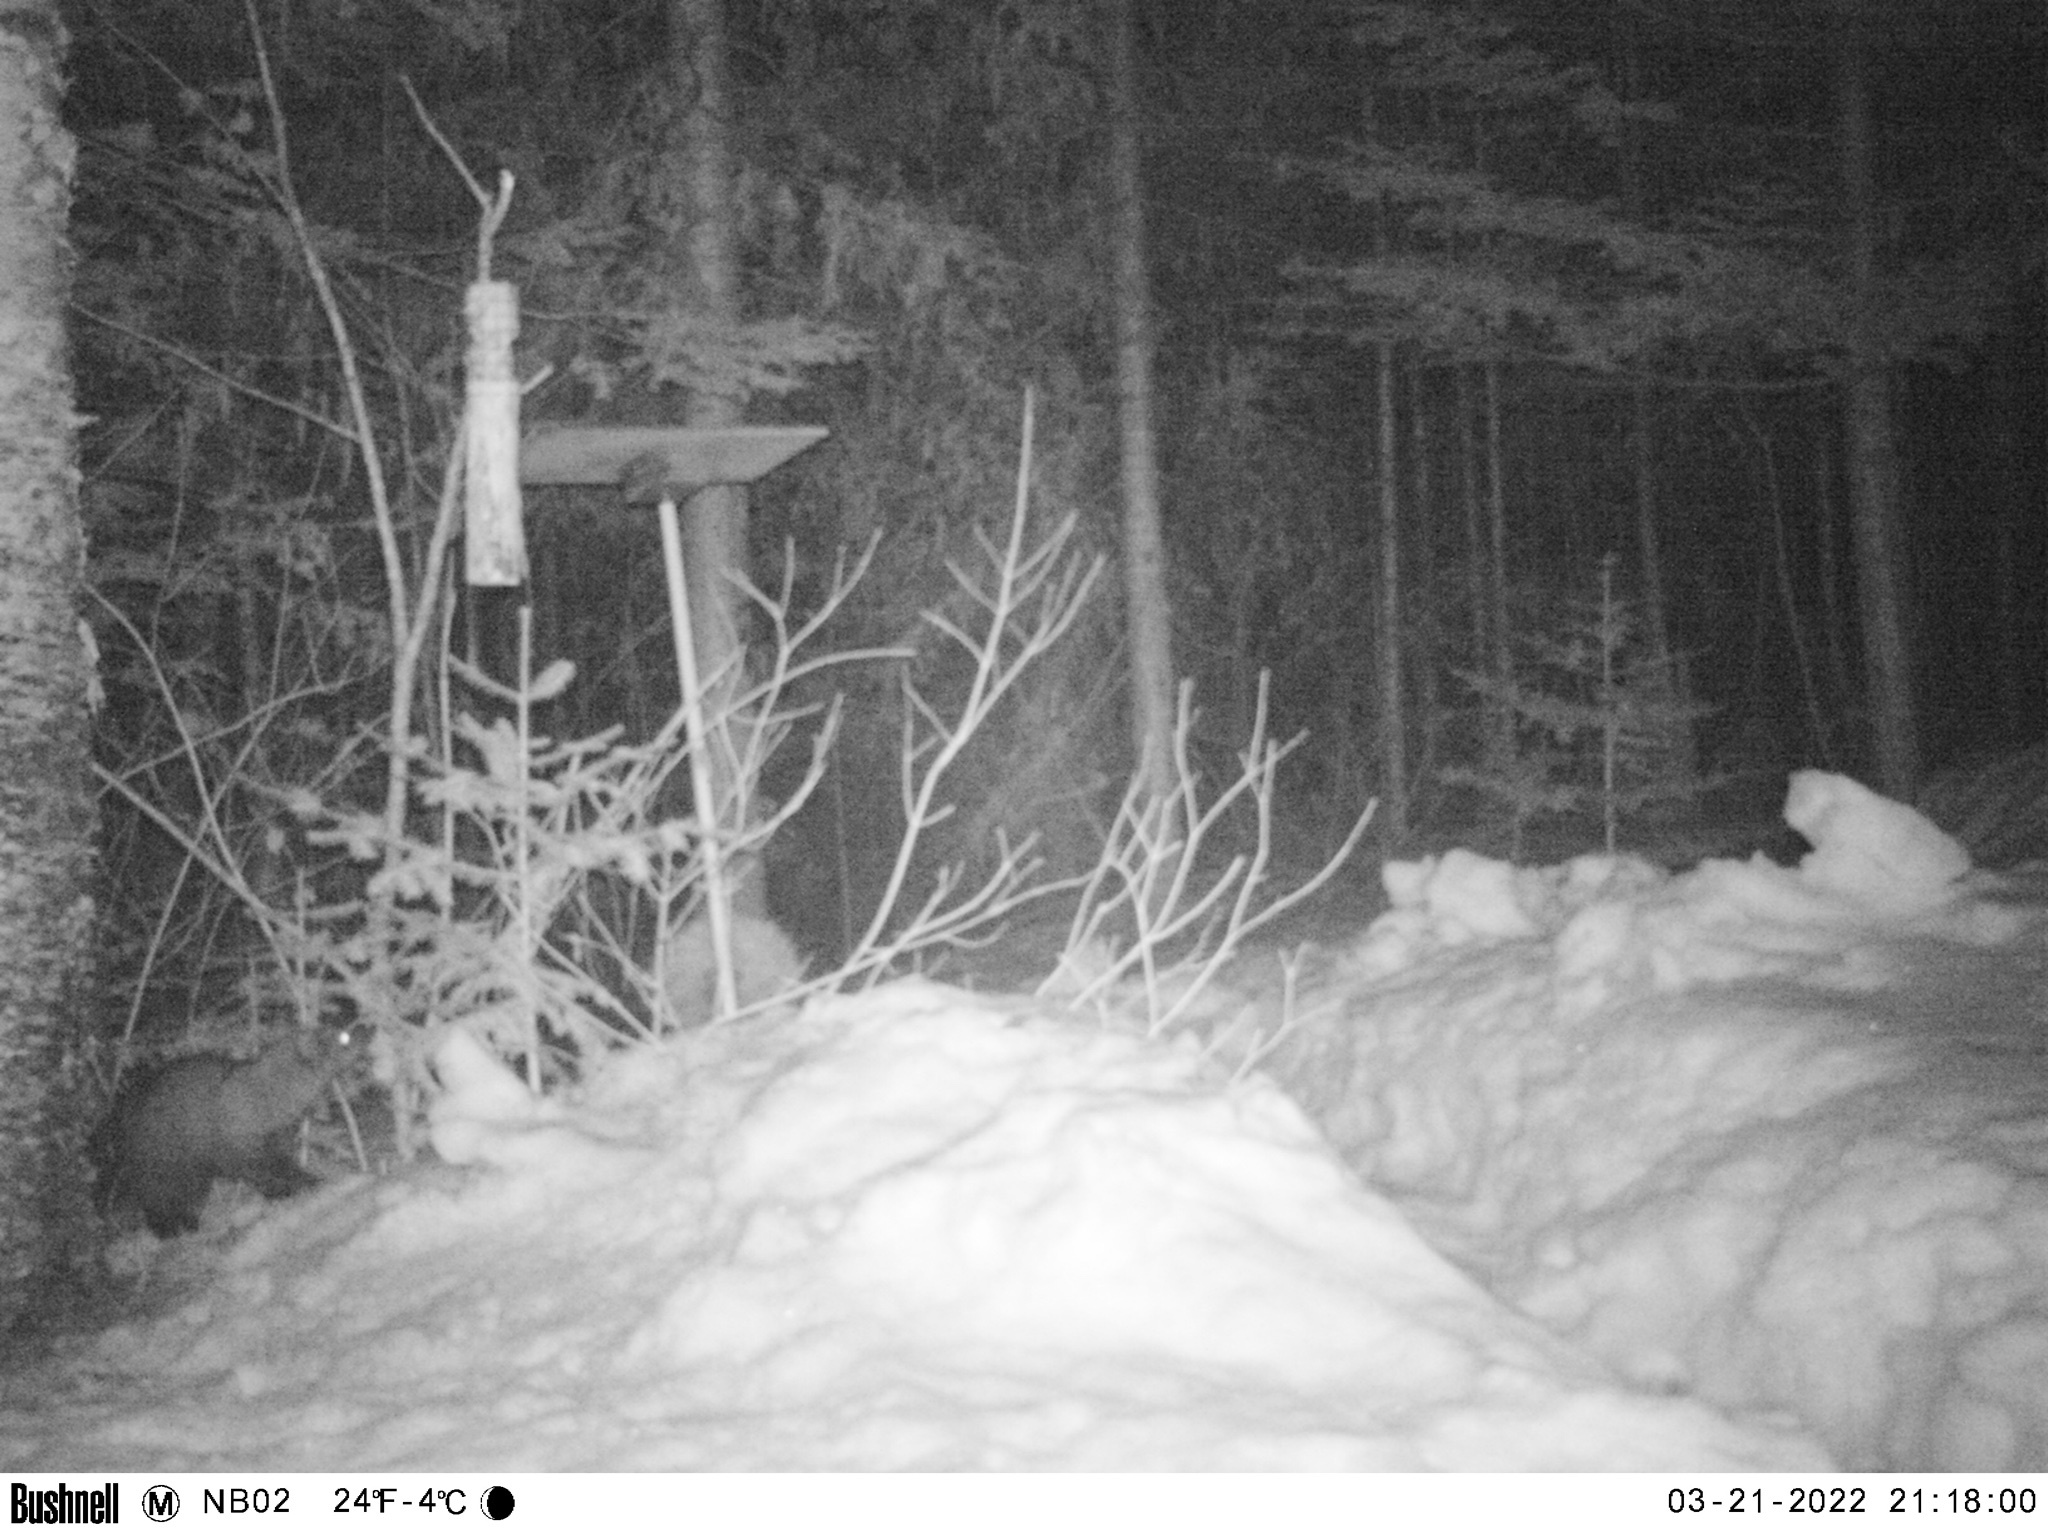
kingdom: Animalia
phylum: Chordata
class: Mammalia
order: Carnivora
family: Mustelidae
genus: Pekania
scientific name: Pekania pennanti
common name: Fisher
